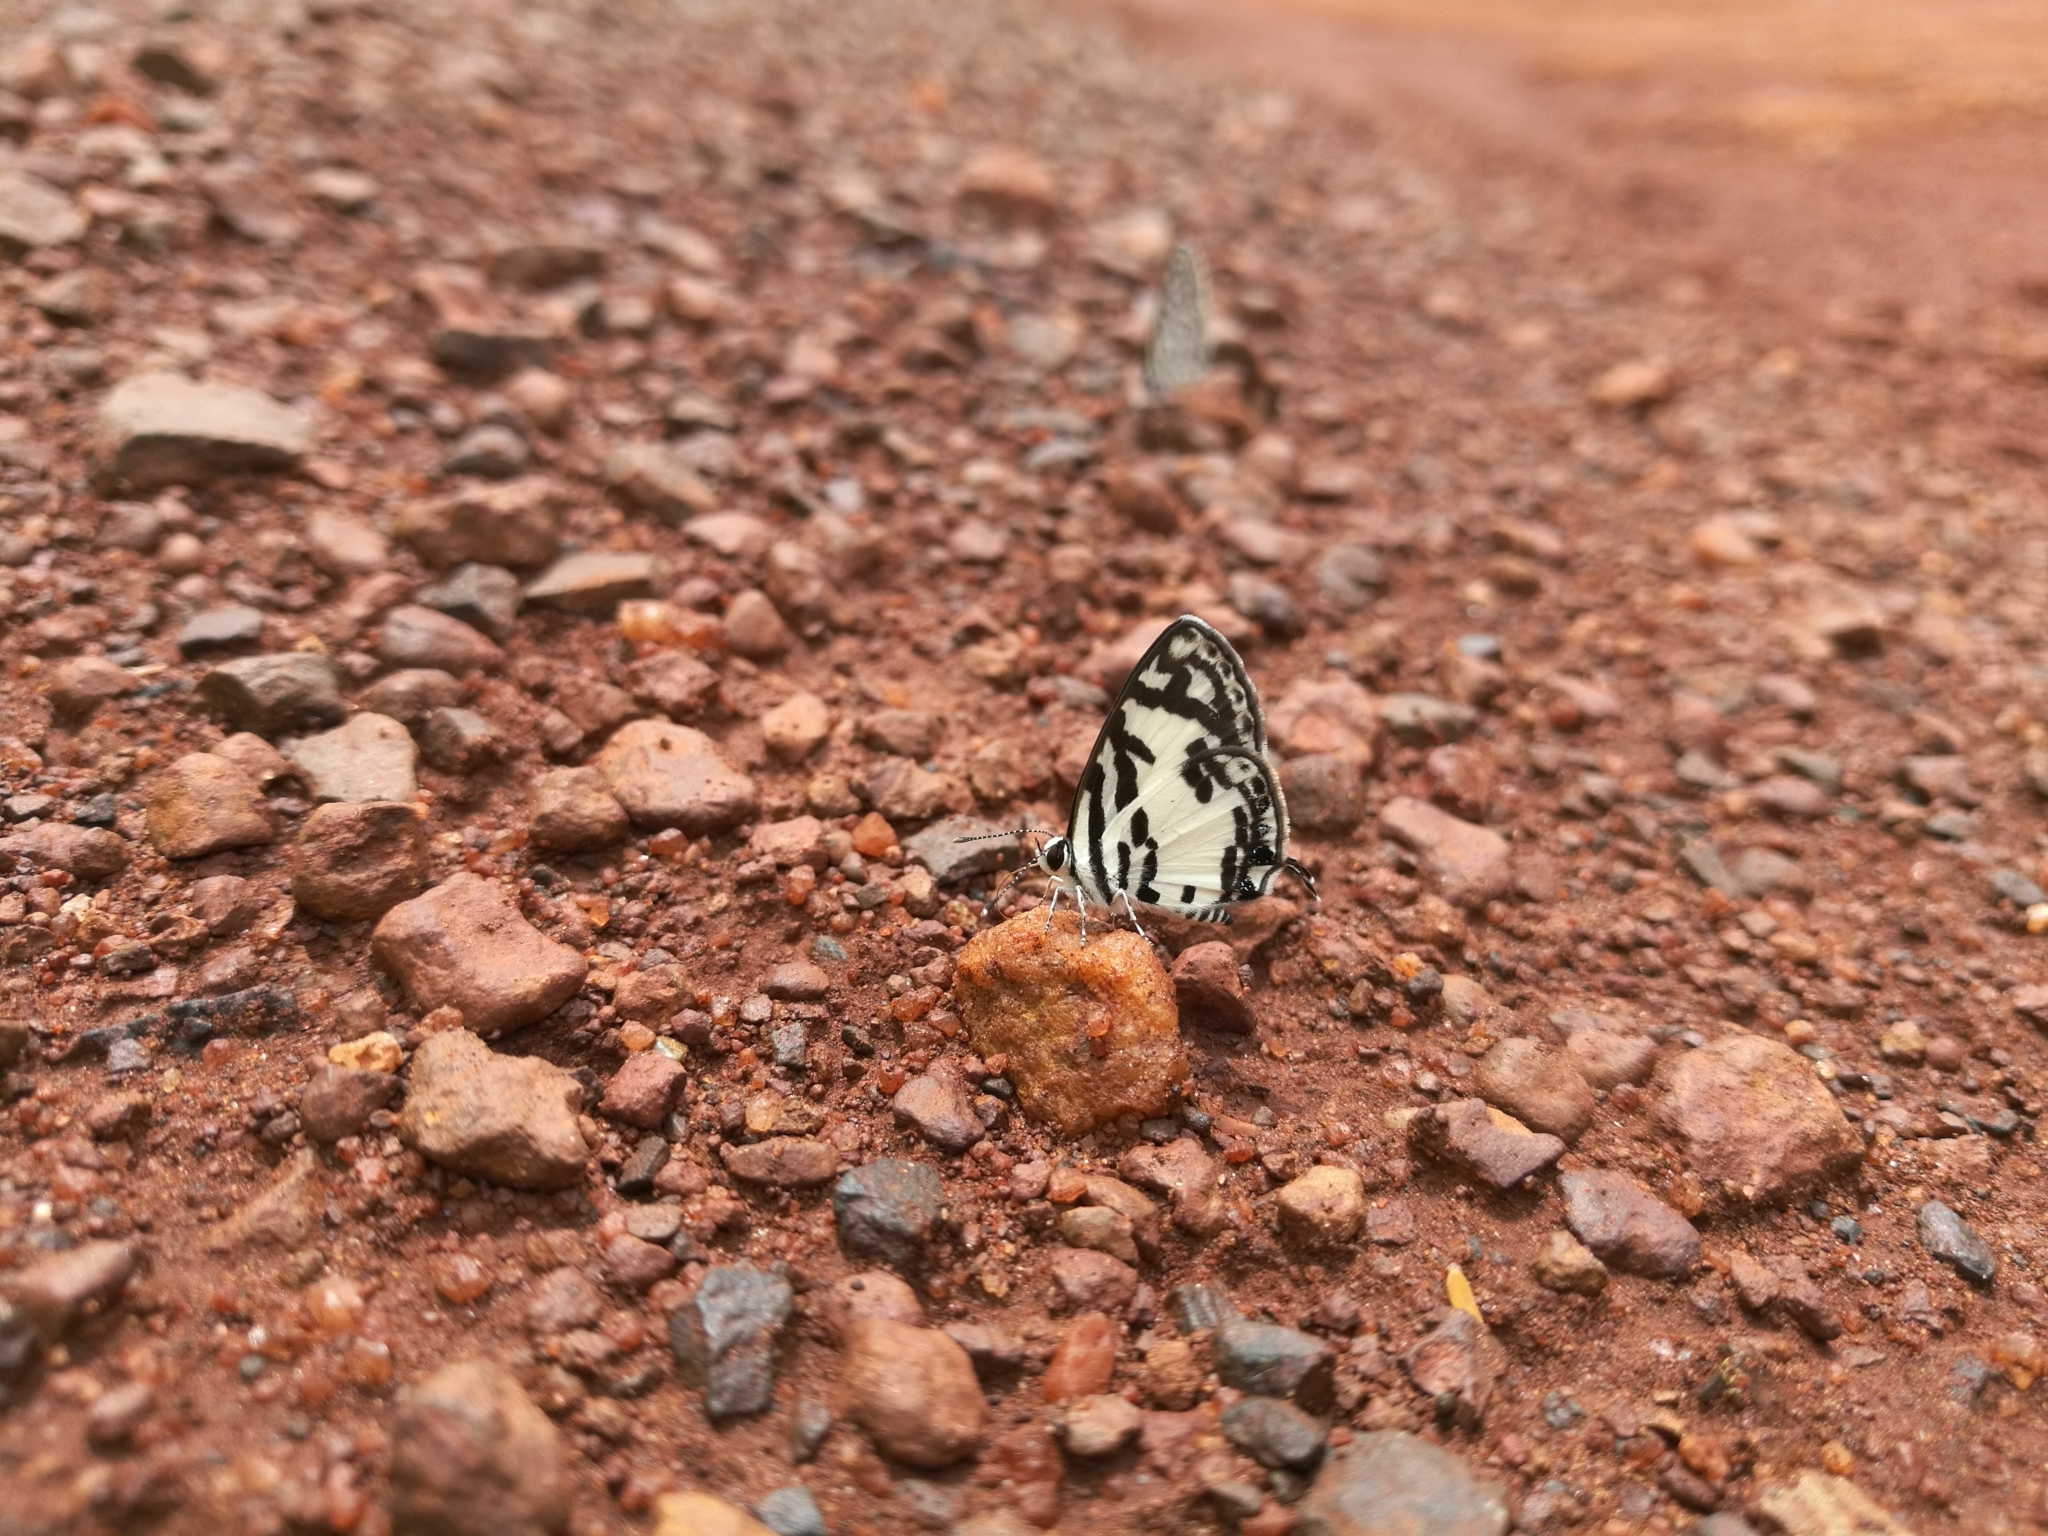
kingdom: Animalia
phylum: Arthropoda
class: Insecta
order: Lepidoptera
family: Lycaenidae
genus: Tuxentius
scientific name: Tuxentius
